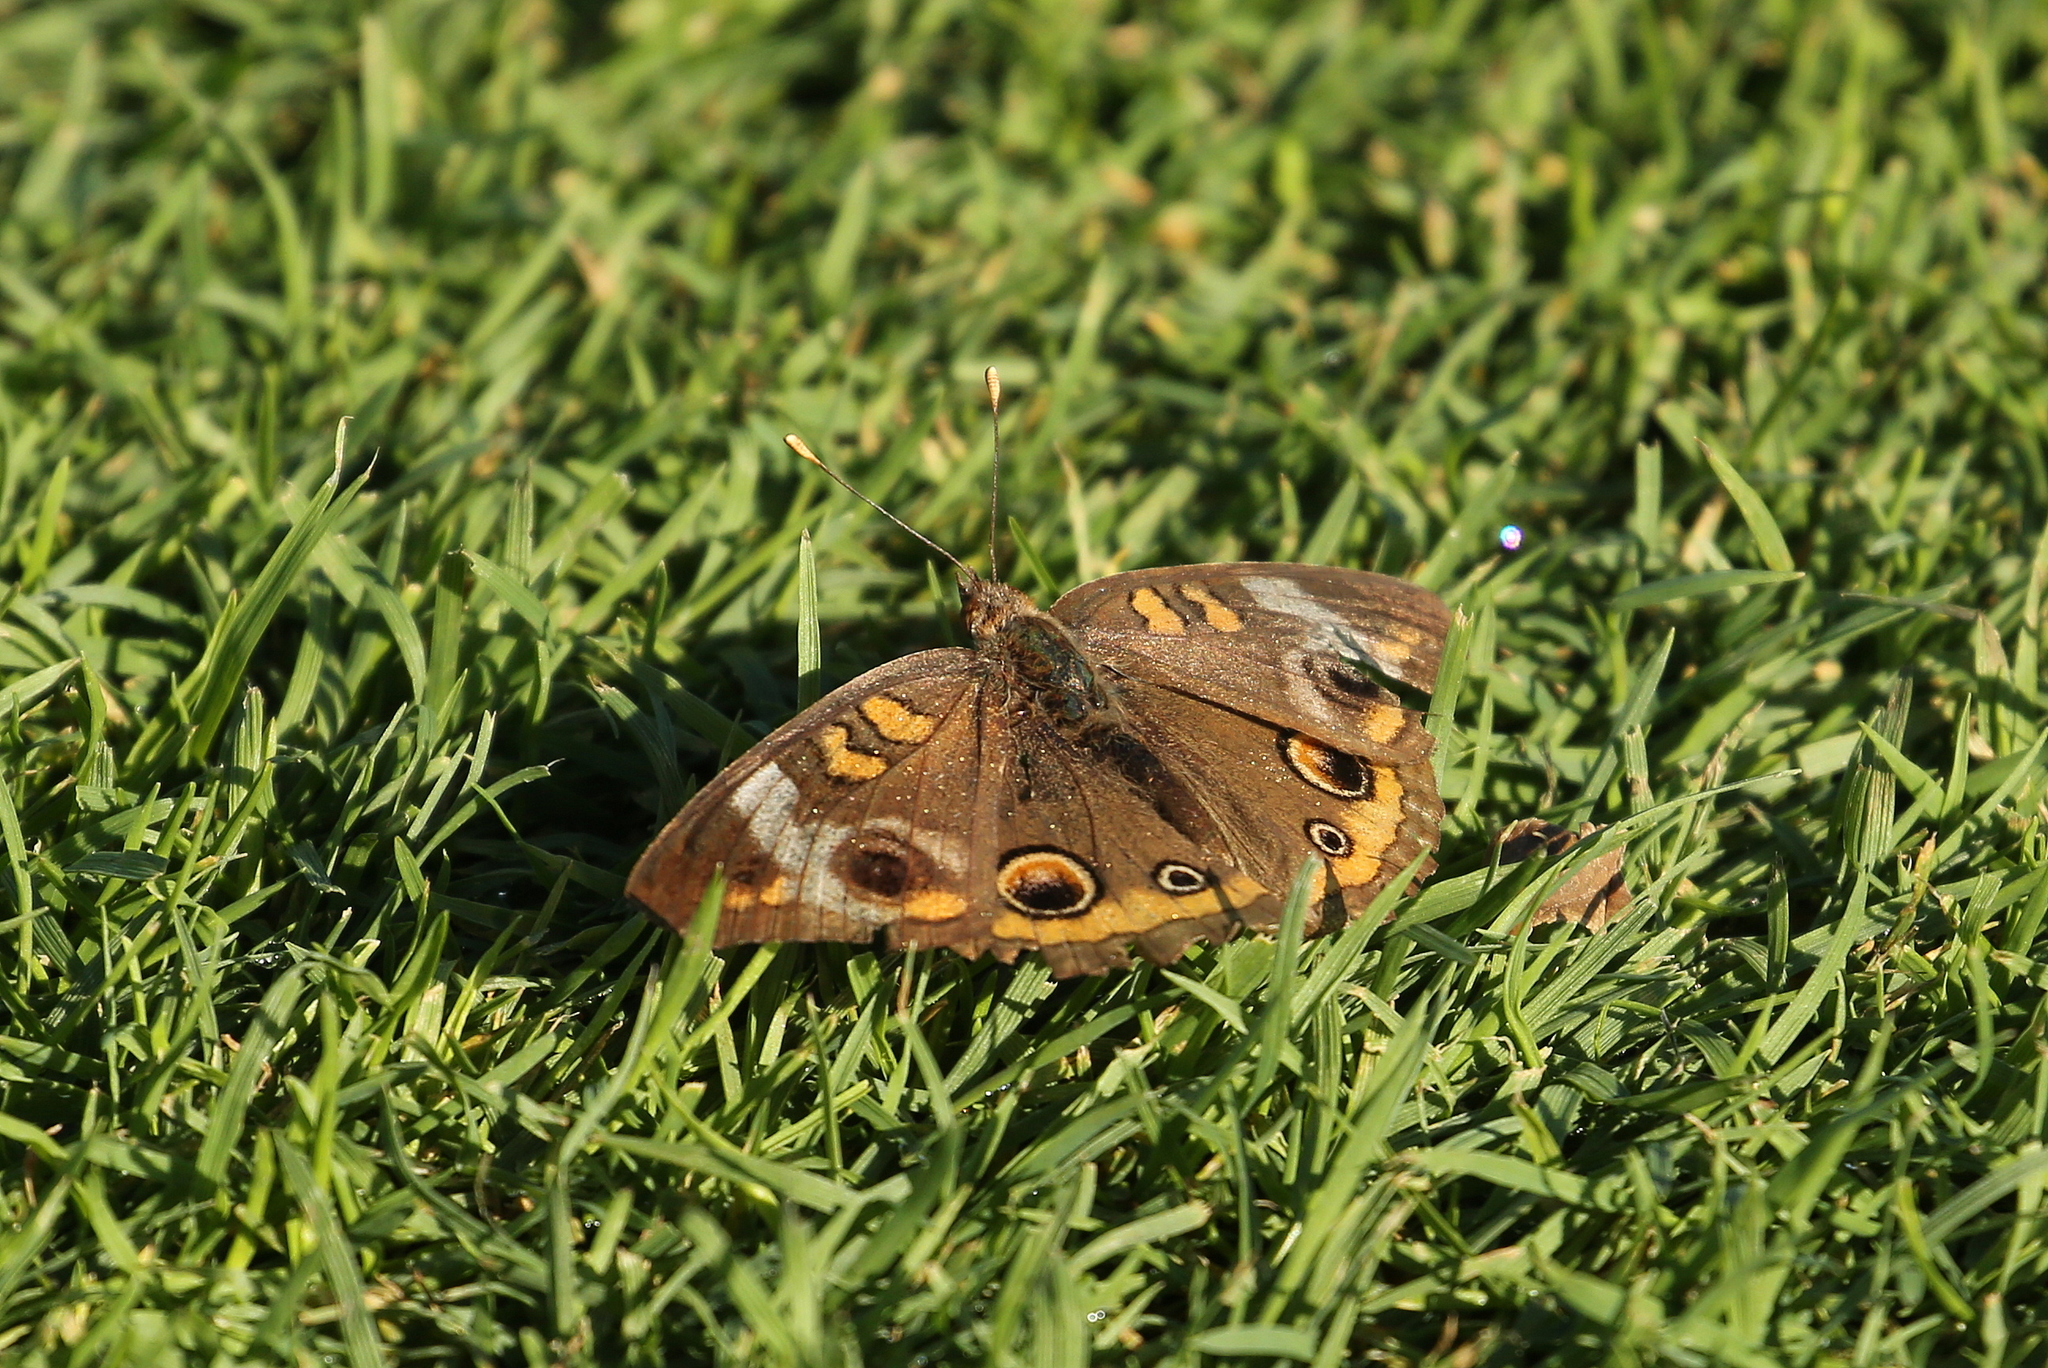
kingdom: Animalia
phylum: Arthropoda
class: Insecta
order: Lepidoptera
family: Nymphalidae
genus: Junonia
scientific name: Junonia coenia
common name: Common buckeye
